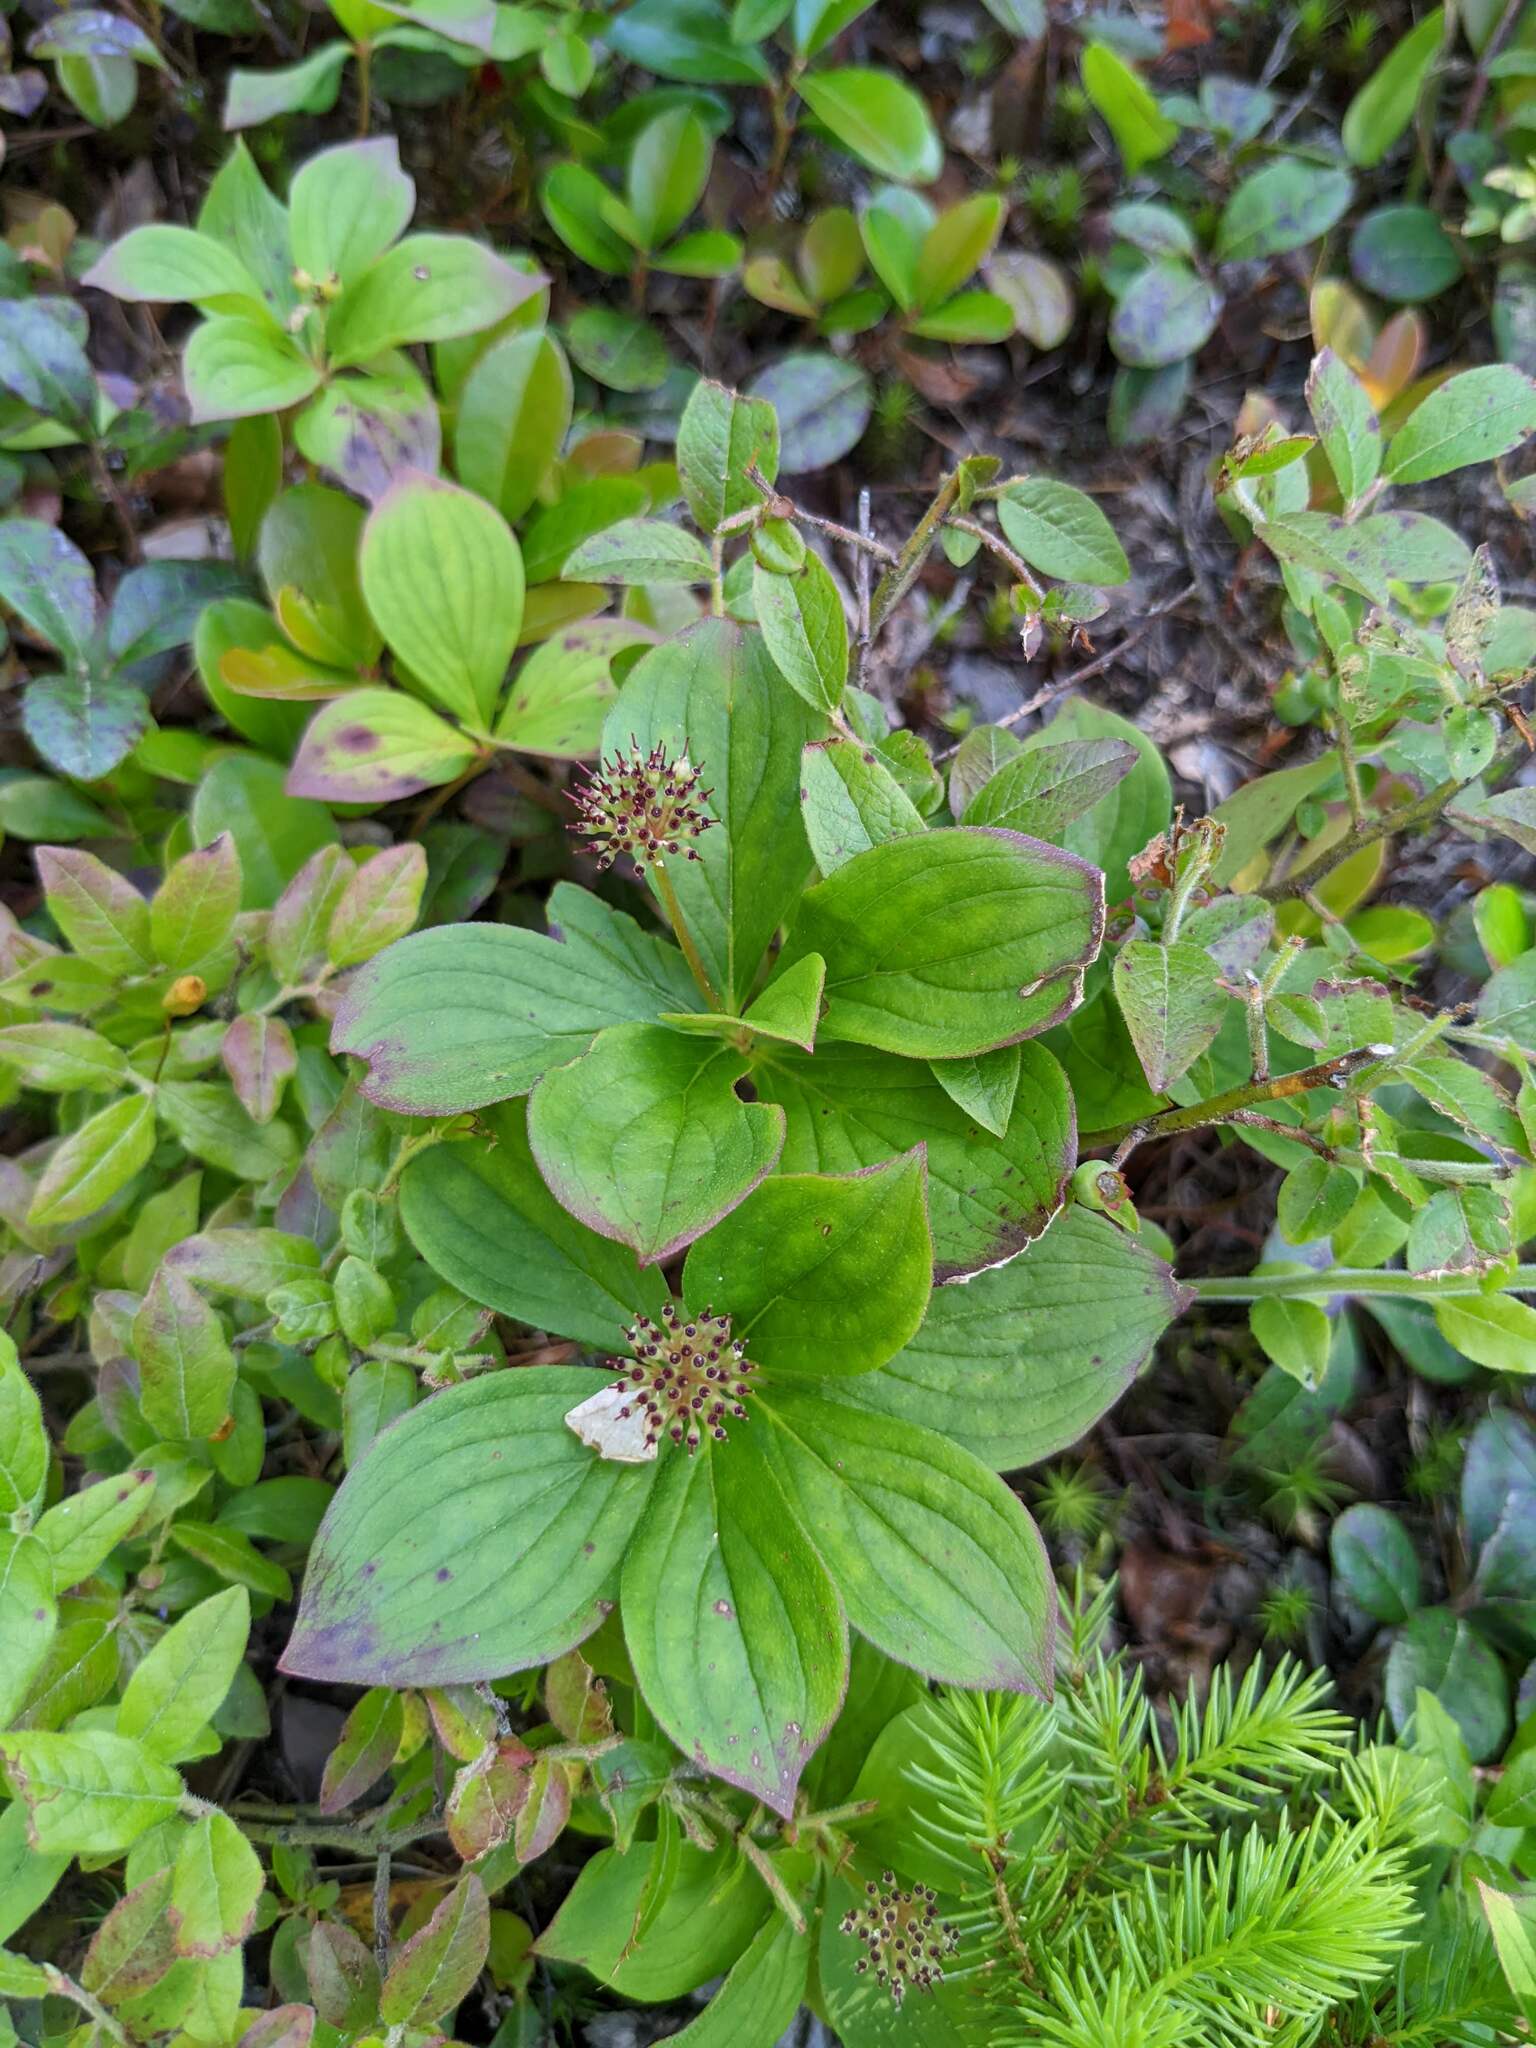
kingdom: Plantae
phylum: Tracheophyta
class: Magnoliopsida
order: Cornales
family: Cornaceae
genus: Cornus
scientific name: Cornus canadensis
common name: Creeping dogwood
